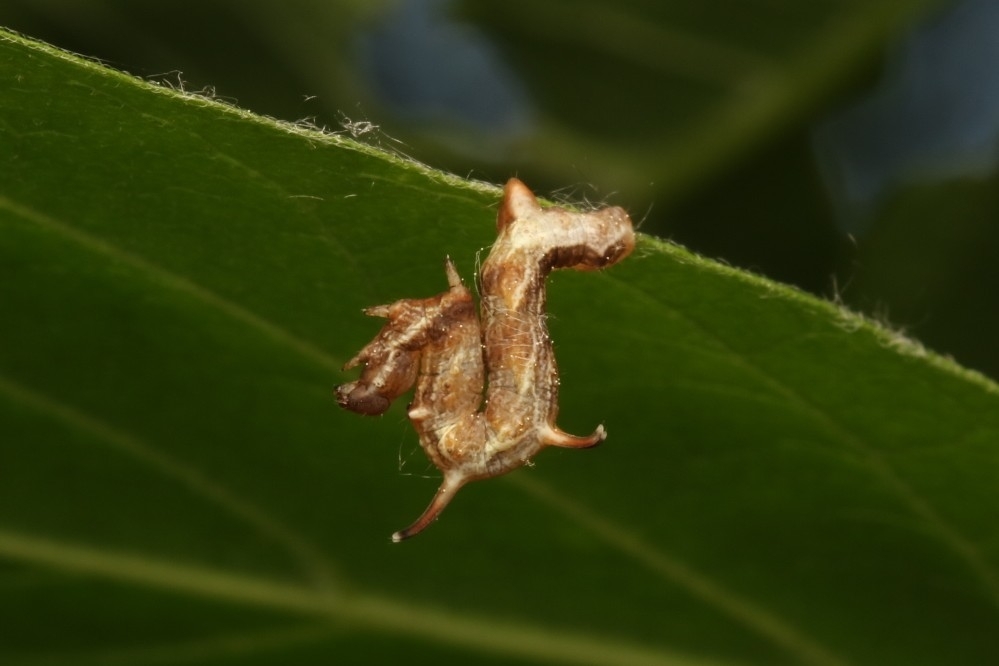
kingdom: Animalia
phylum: Arthropoda
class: Insecta
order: Lepidoptera
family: Geometridae
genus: Nematocampa
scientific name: Nematocampa resistaria
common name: Horned spanworm moth
